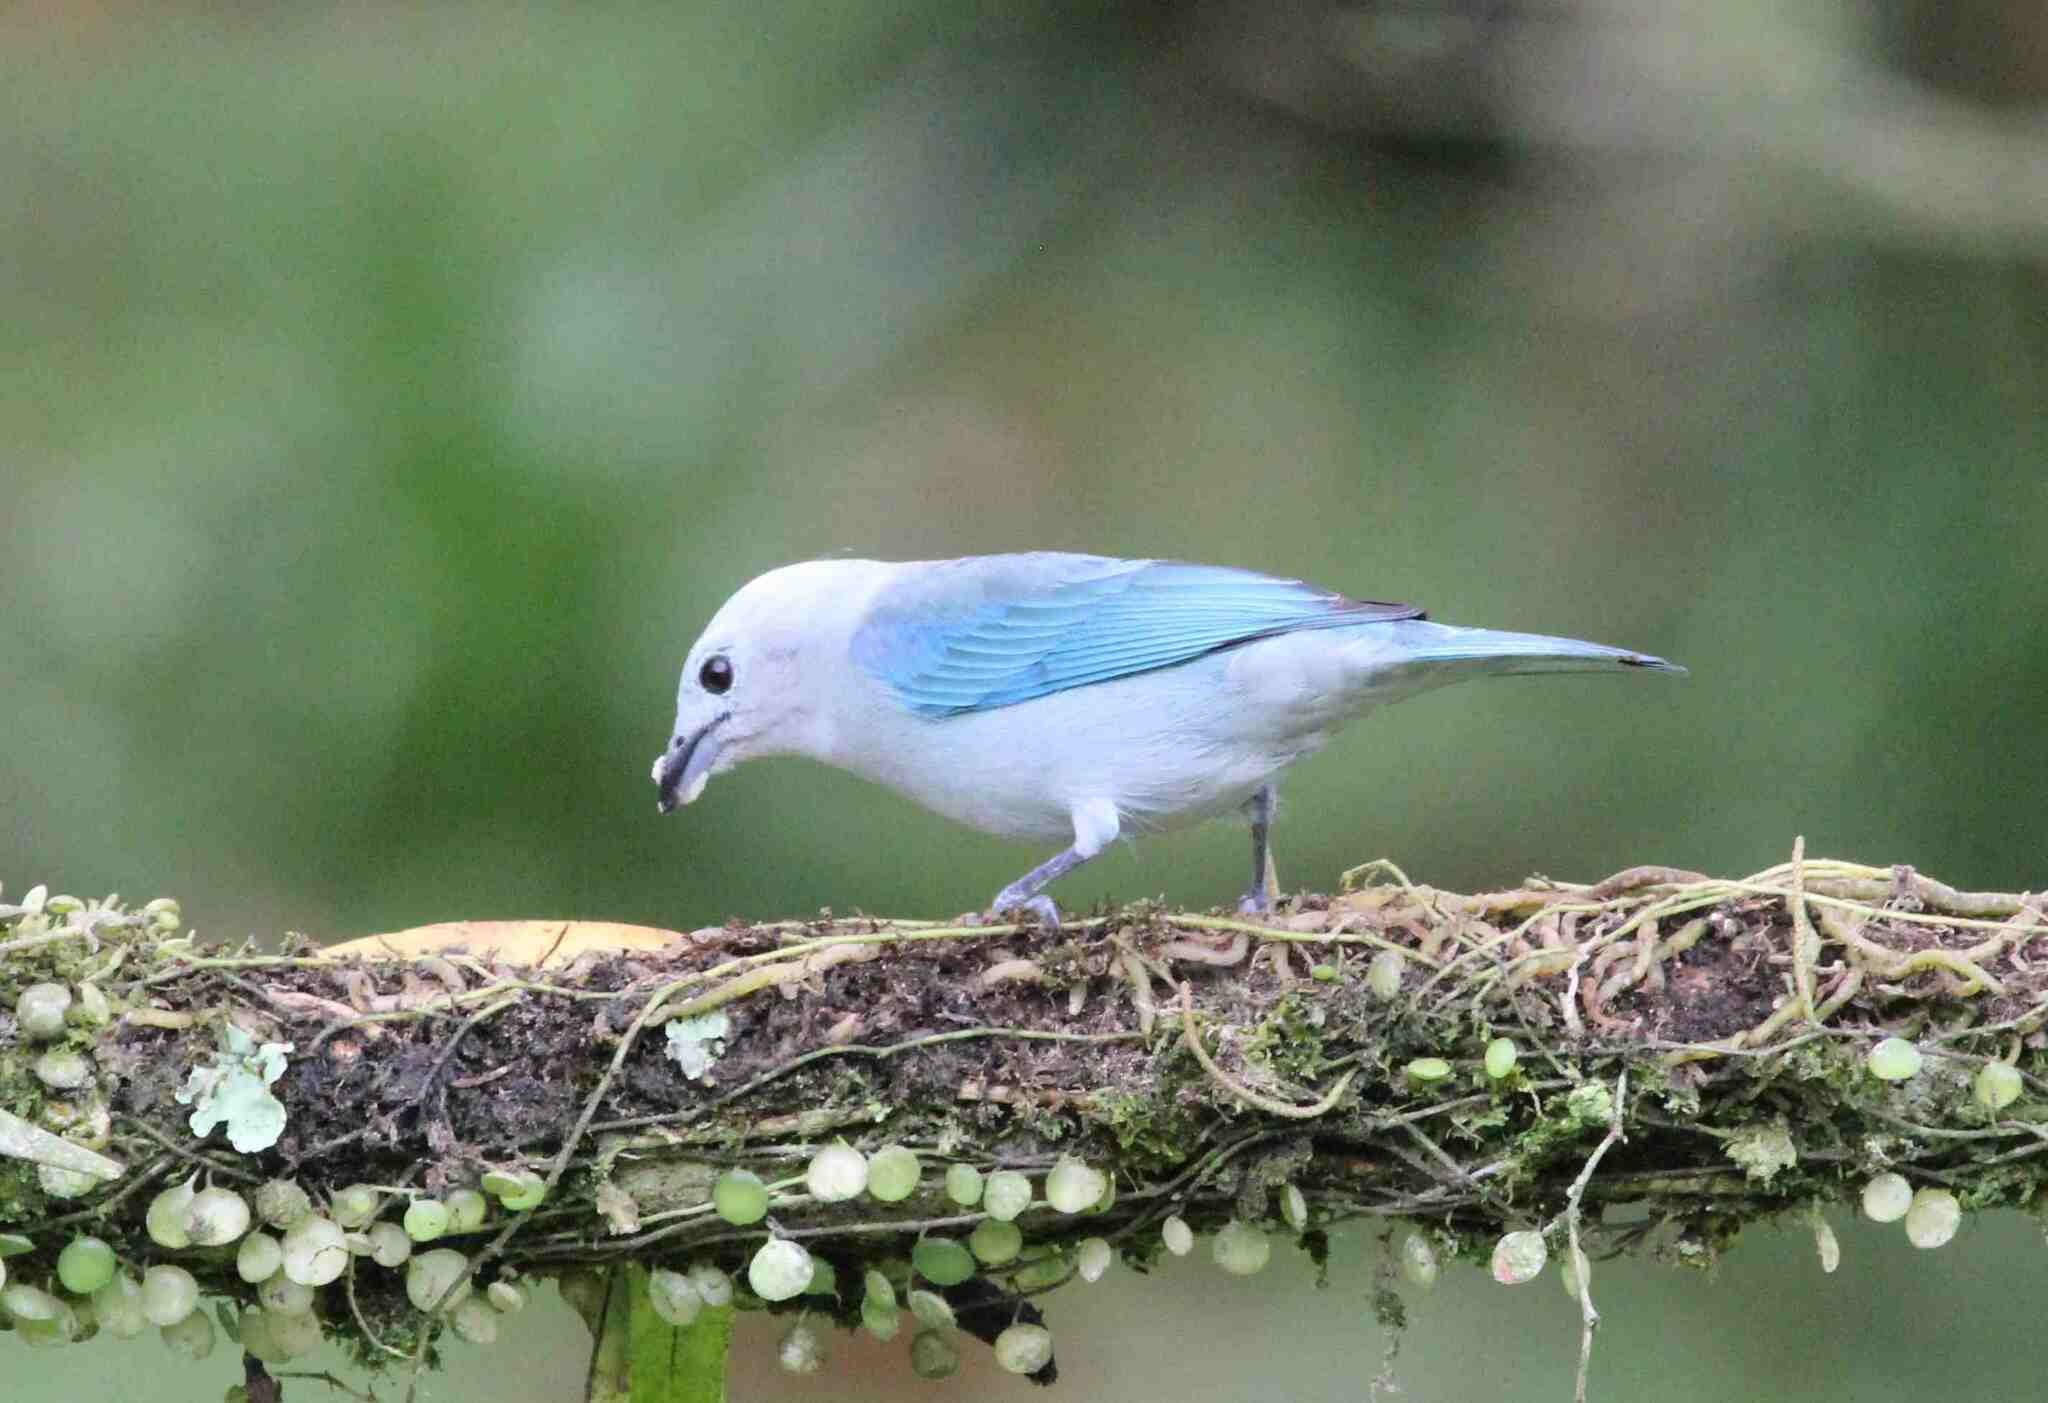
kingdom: Animalia
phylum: Chordata
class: Aves
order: Passeriformes
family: Thraupidae
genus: Thraupis
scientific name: Thraupis episcopus
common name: Blue-grey tanager
